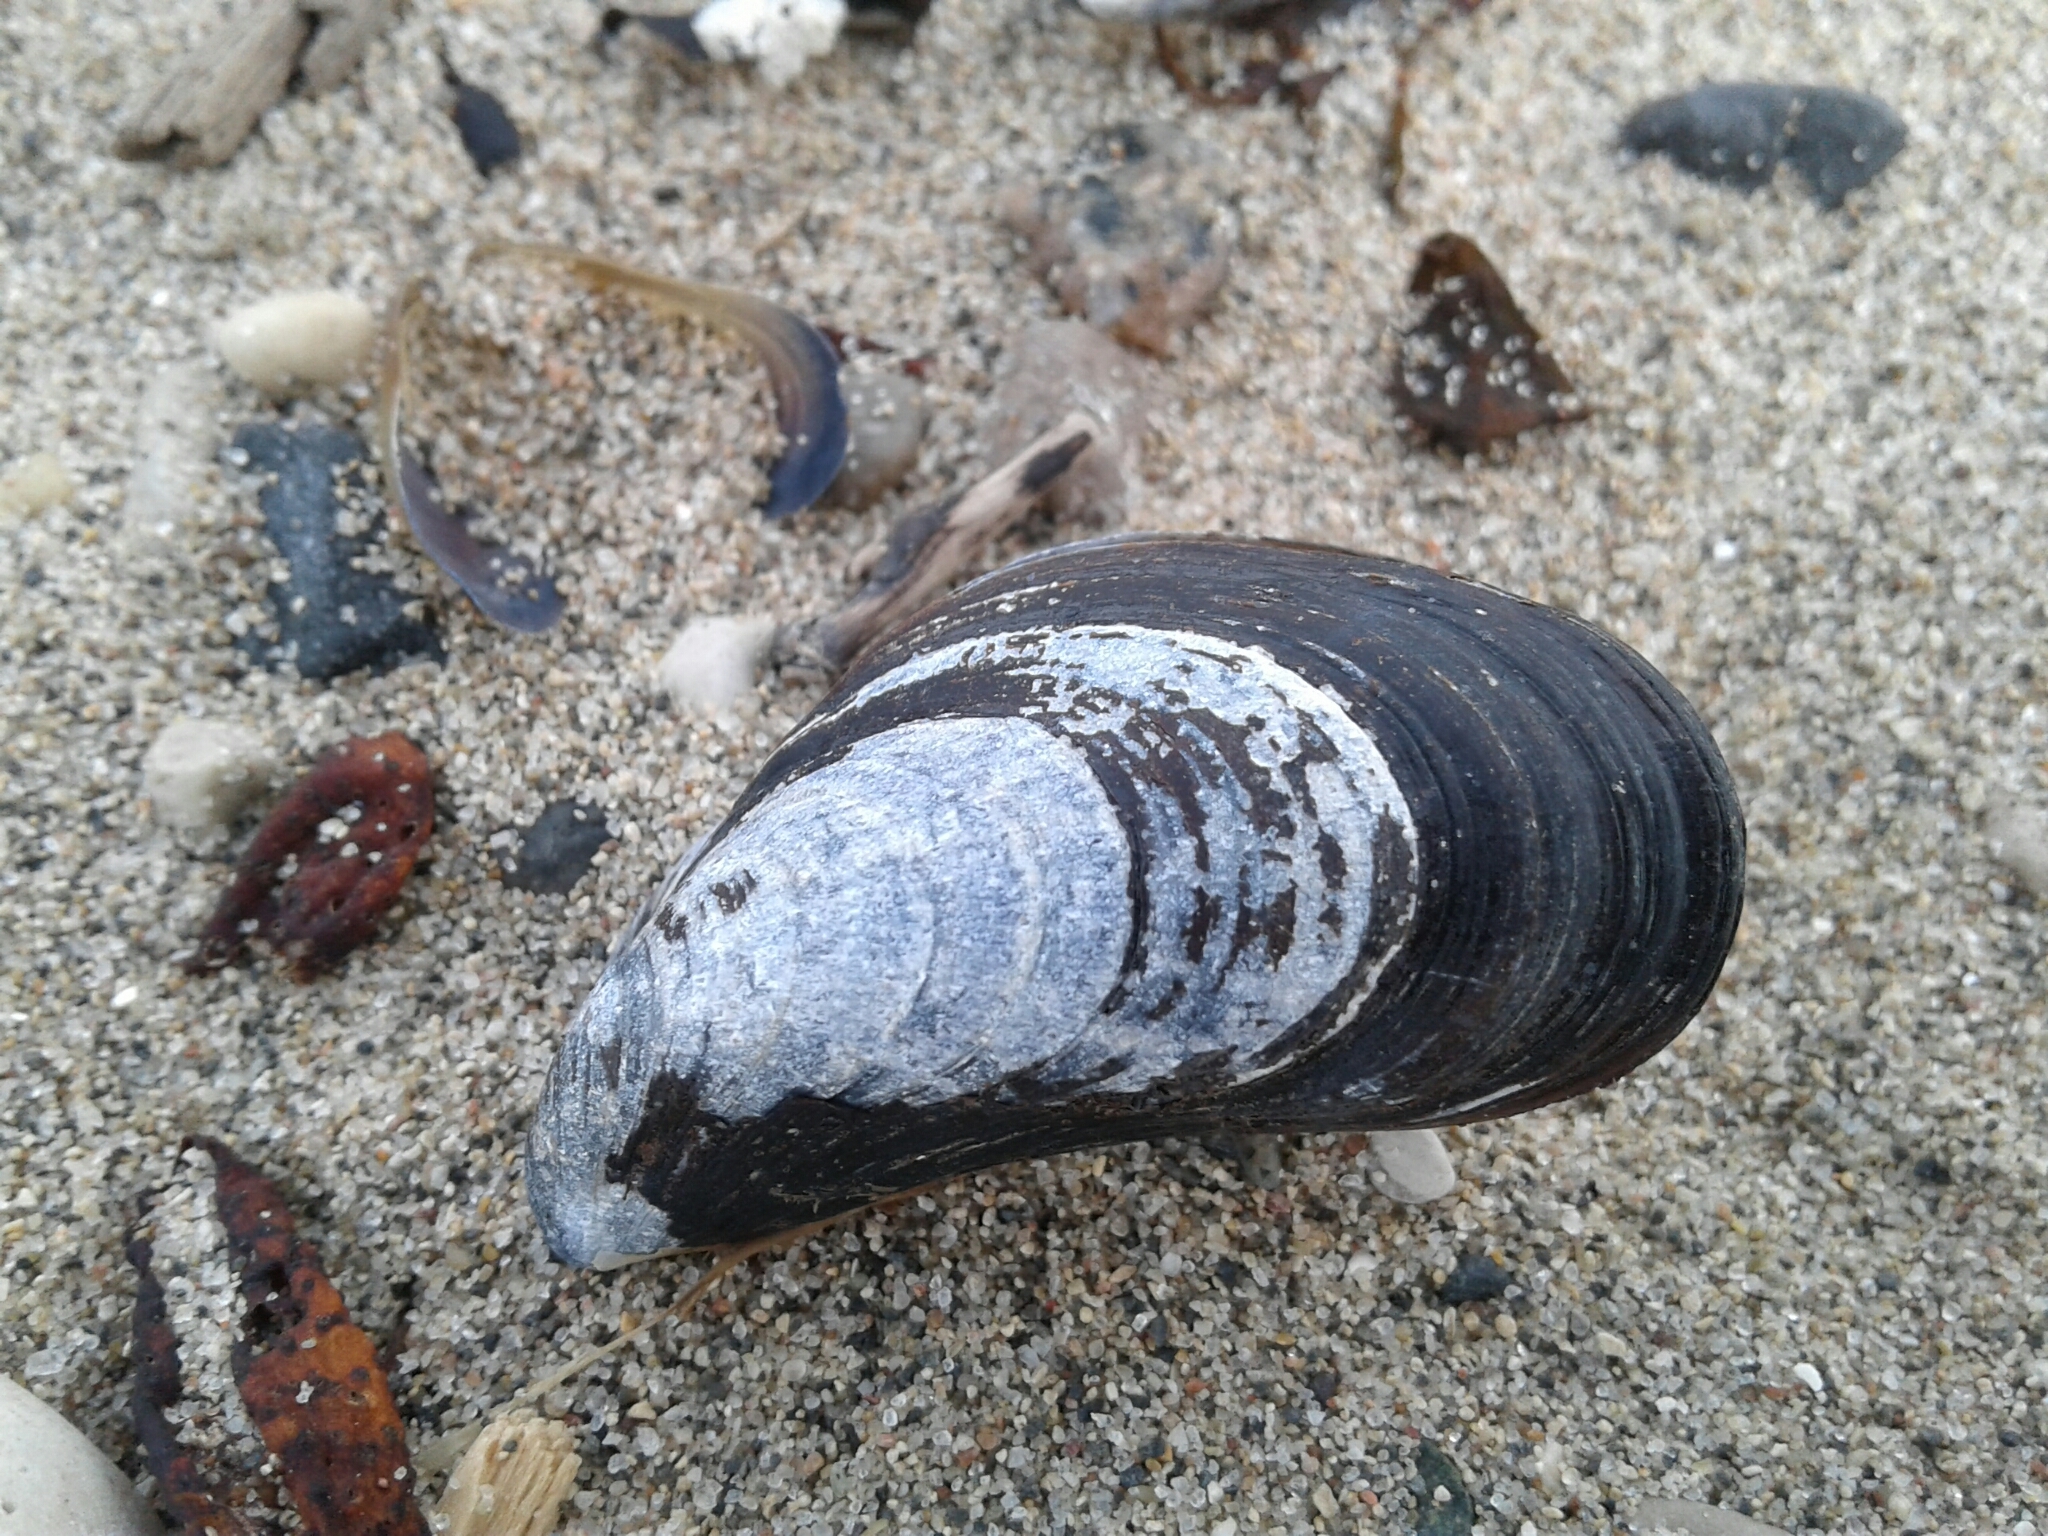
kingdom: Animalia
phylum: Mollusca
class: Bivalvia
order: Mytilida
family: Mytilidae
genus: Mytilus
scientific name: Mytilus edulis
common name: Blue mussel
